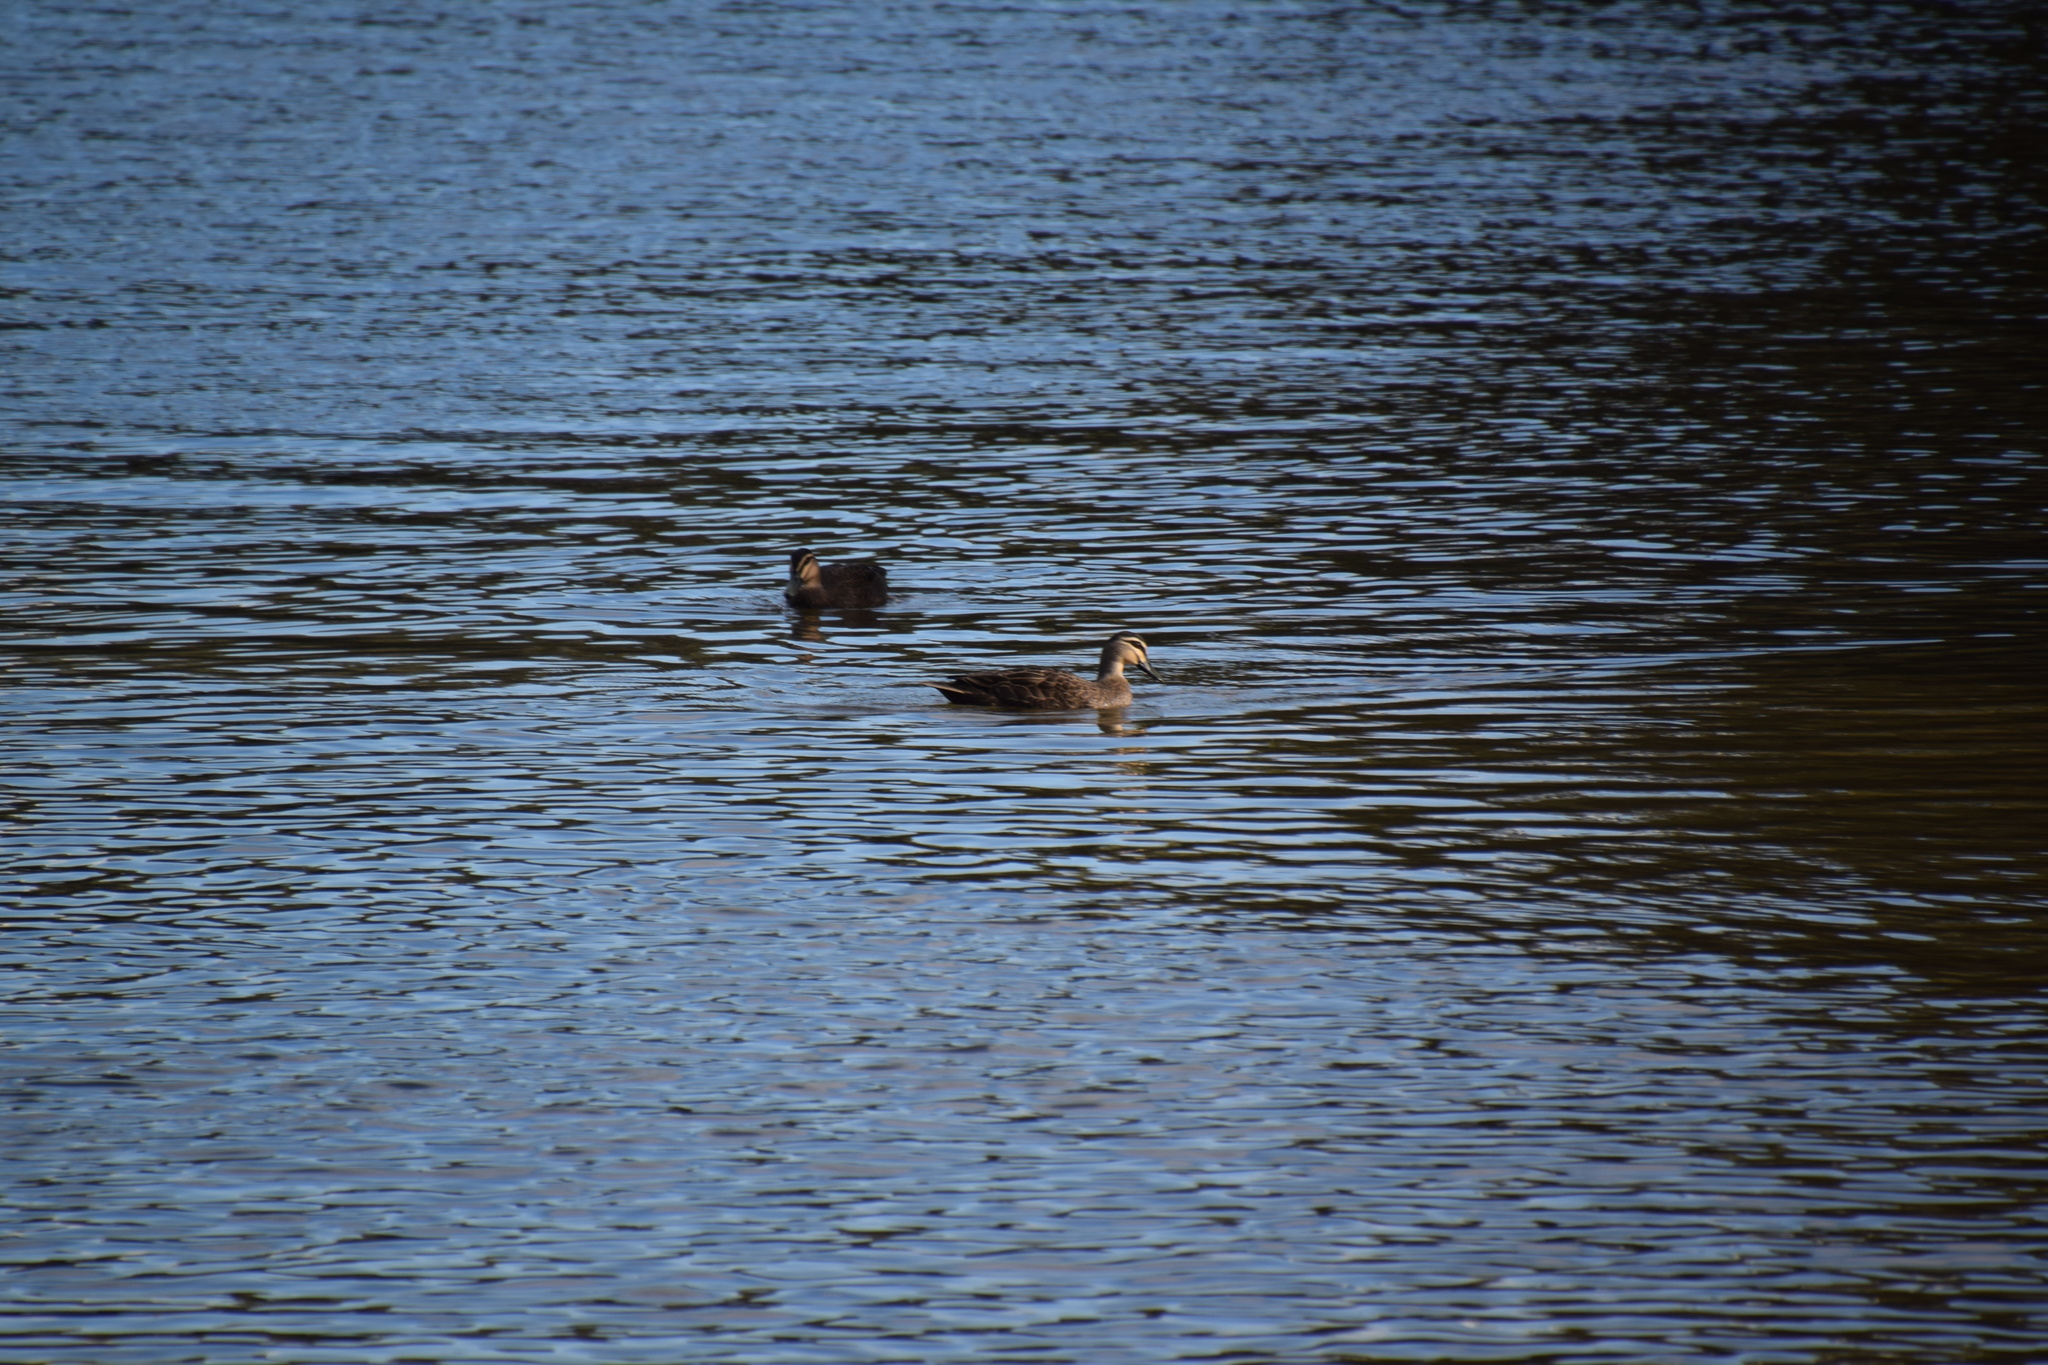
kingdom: Animalia
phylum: Chordata
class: Aves
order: Anseriformes
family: Anatidae
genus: Anas
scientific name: Anas superciliosa
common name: Pacific black duck
